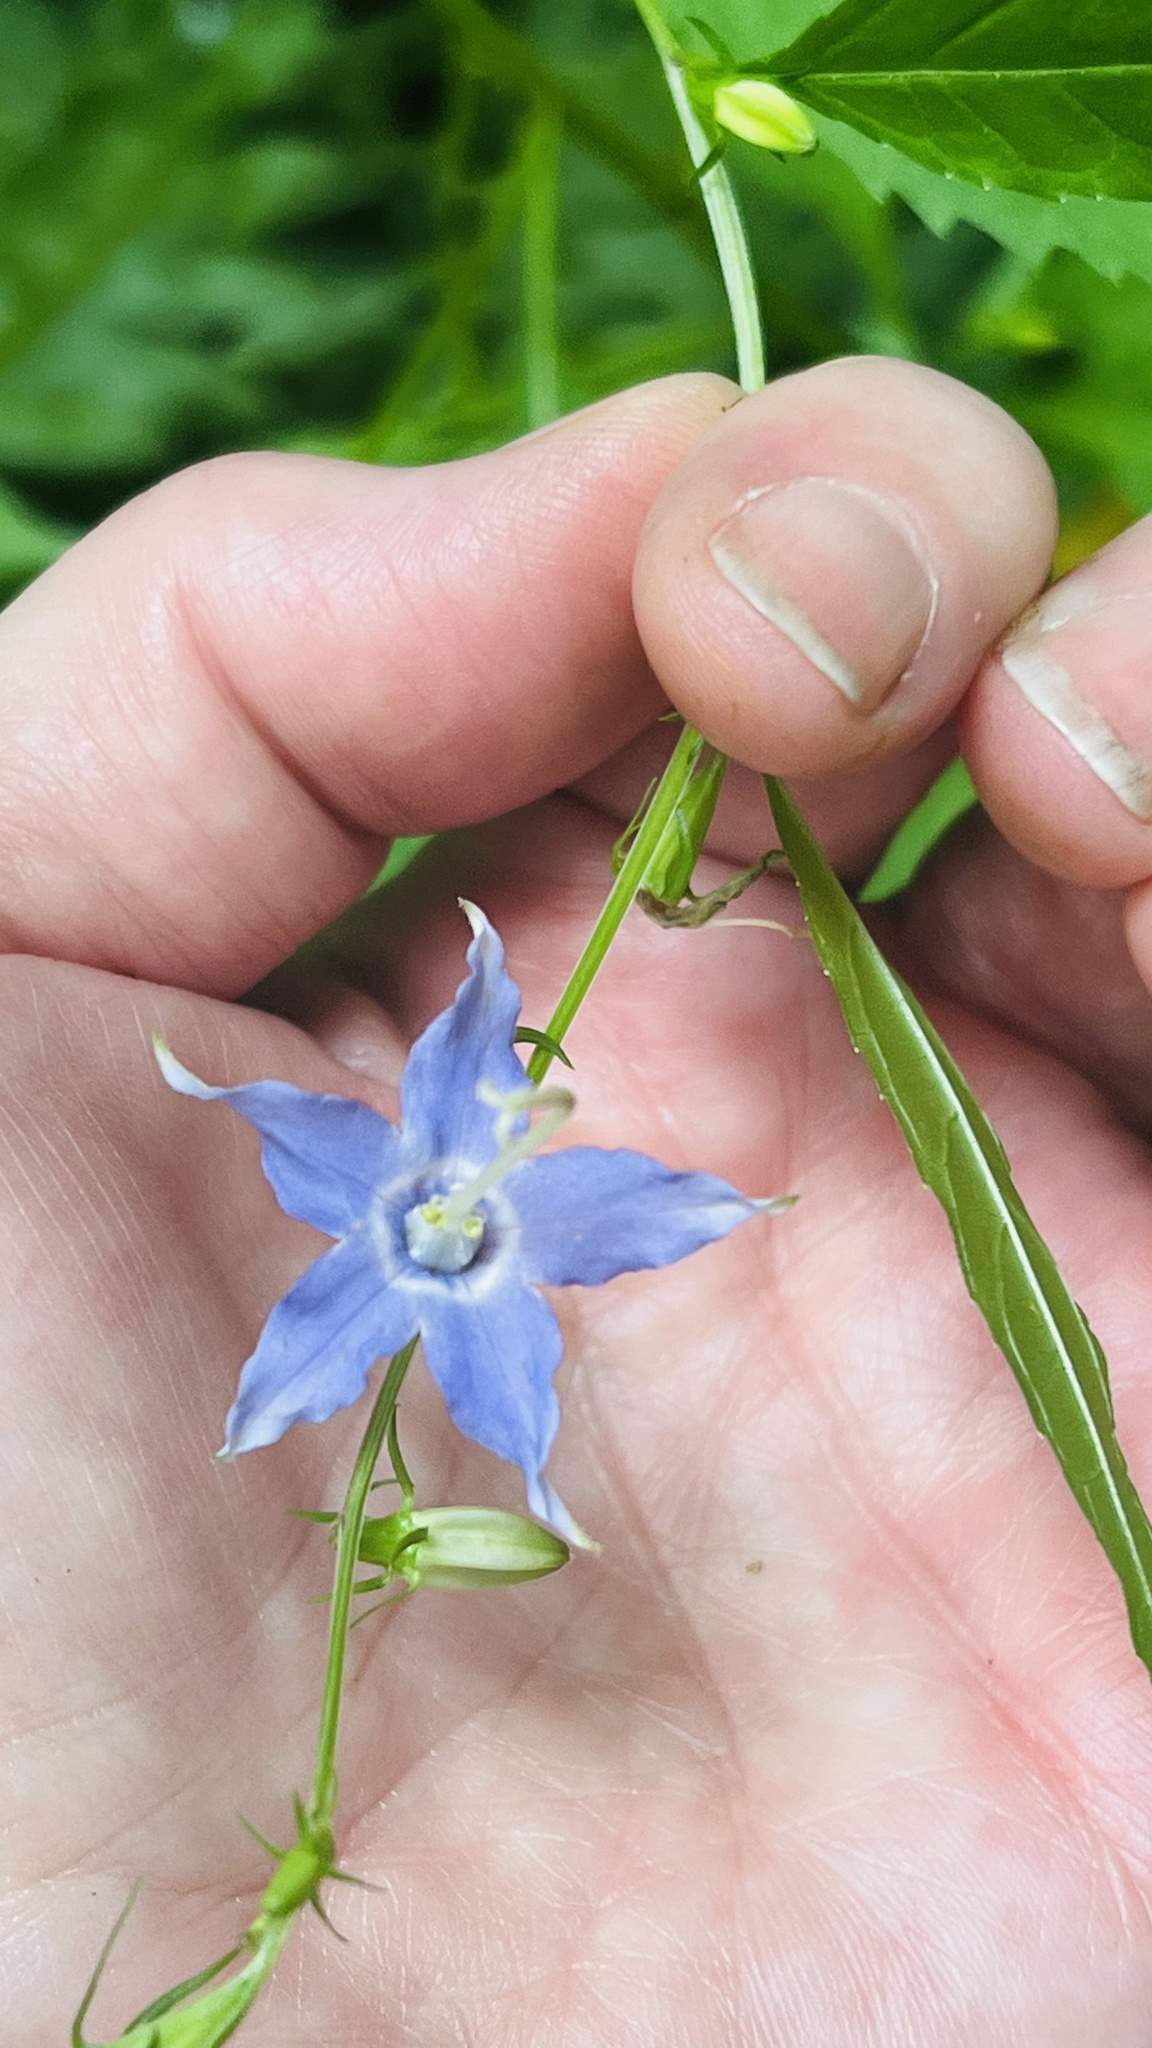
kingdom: Plantae
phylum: Tracheophyta
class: Magnoliopsida
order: Asterales
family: Campanulaceae
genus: Campanulastrum
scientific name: Campanulastrum americanum
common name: American bellflower
